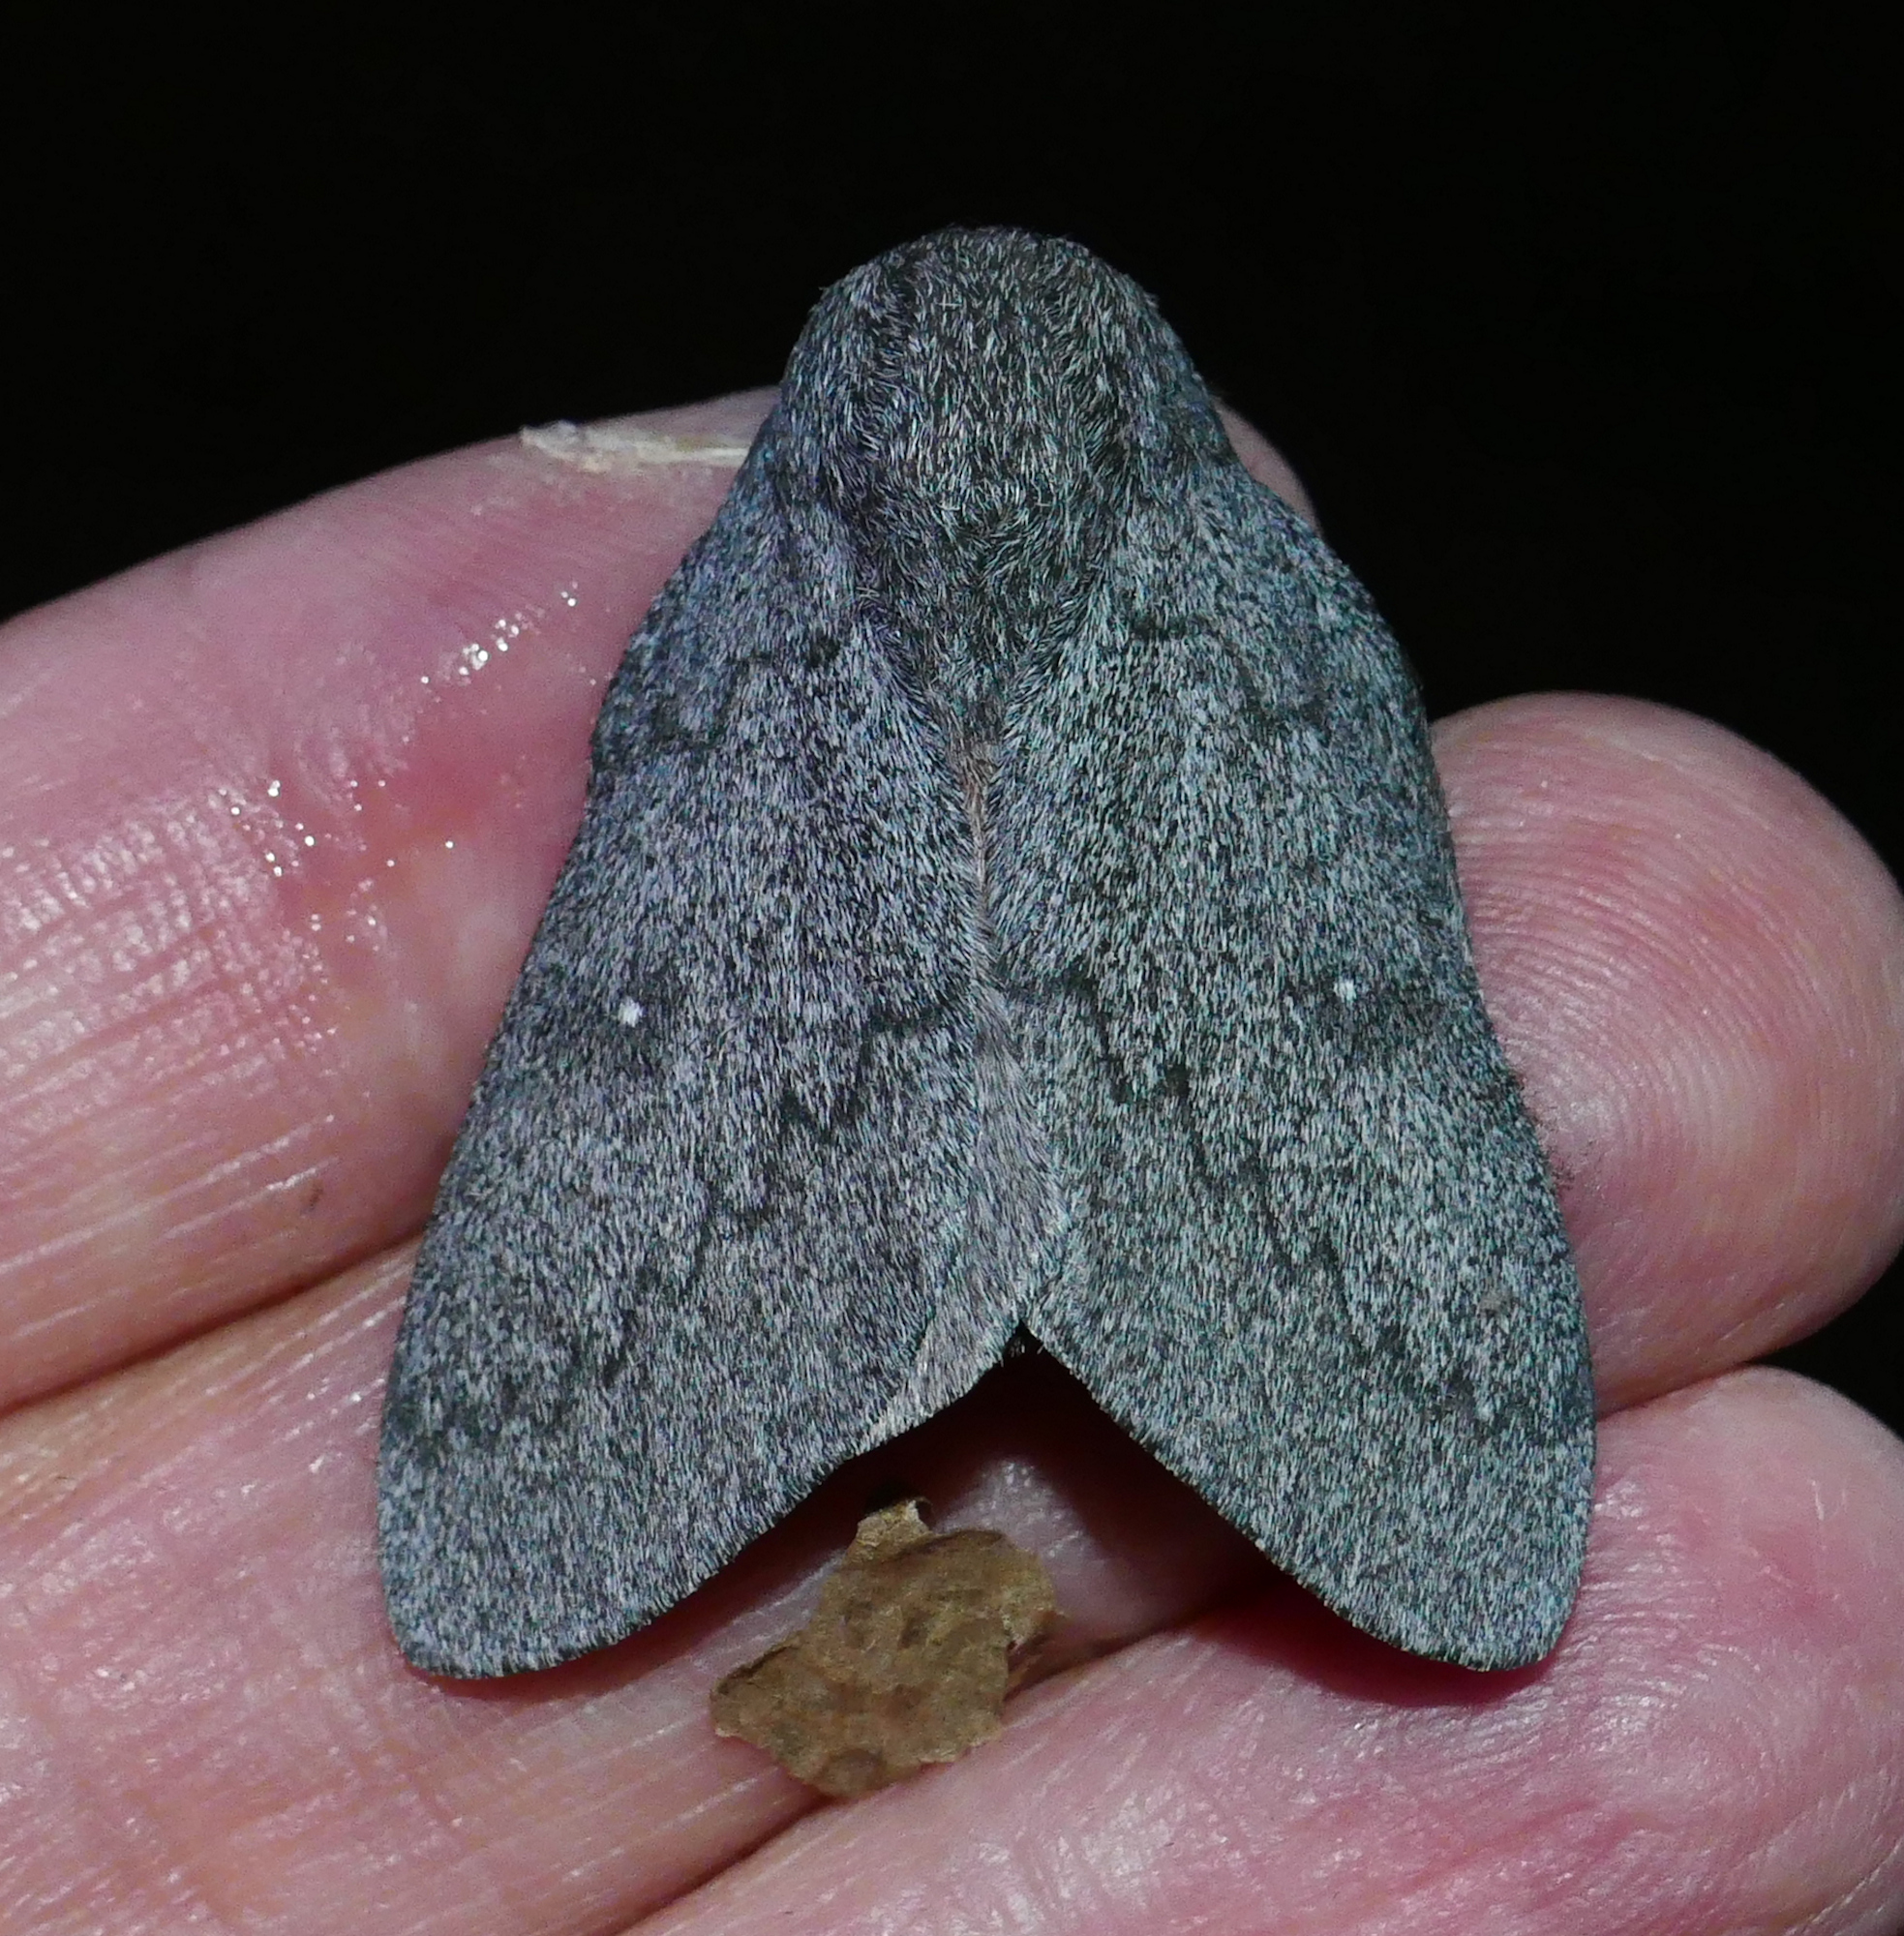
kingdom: Animalia
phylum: Arthropoda
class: Insecta
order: Lepidoptera
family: Saturniidae
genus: Syssphinx
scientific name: Syssphinx hubbardi
